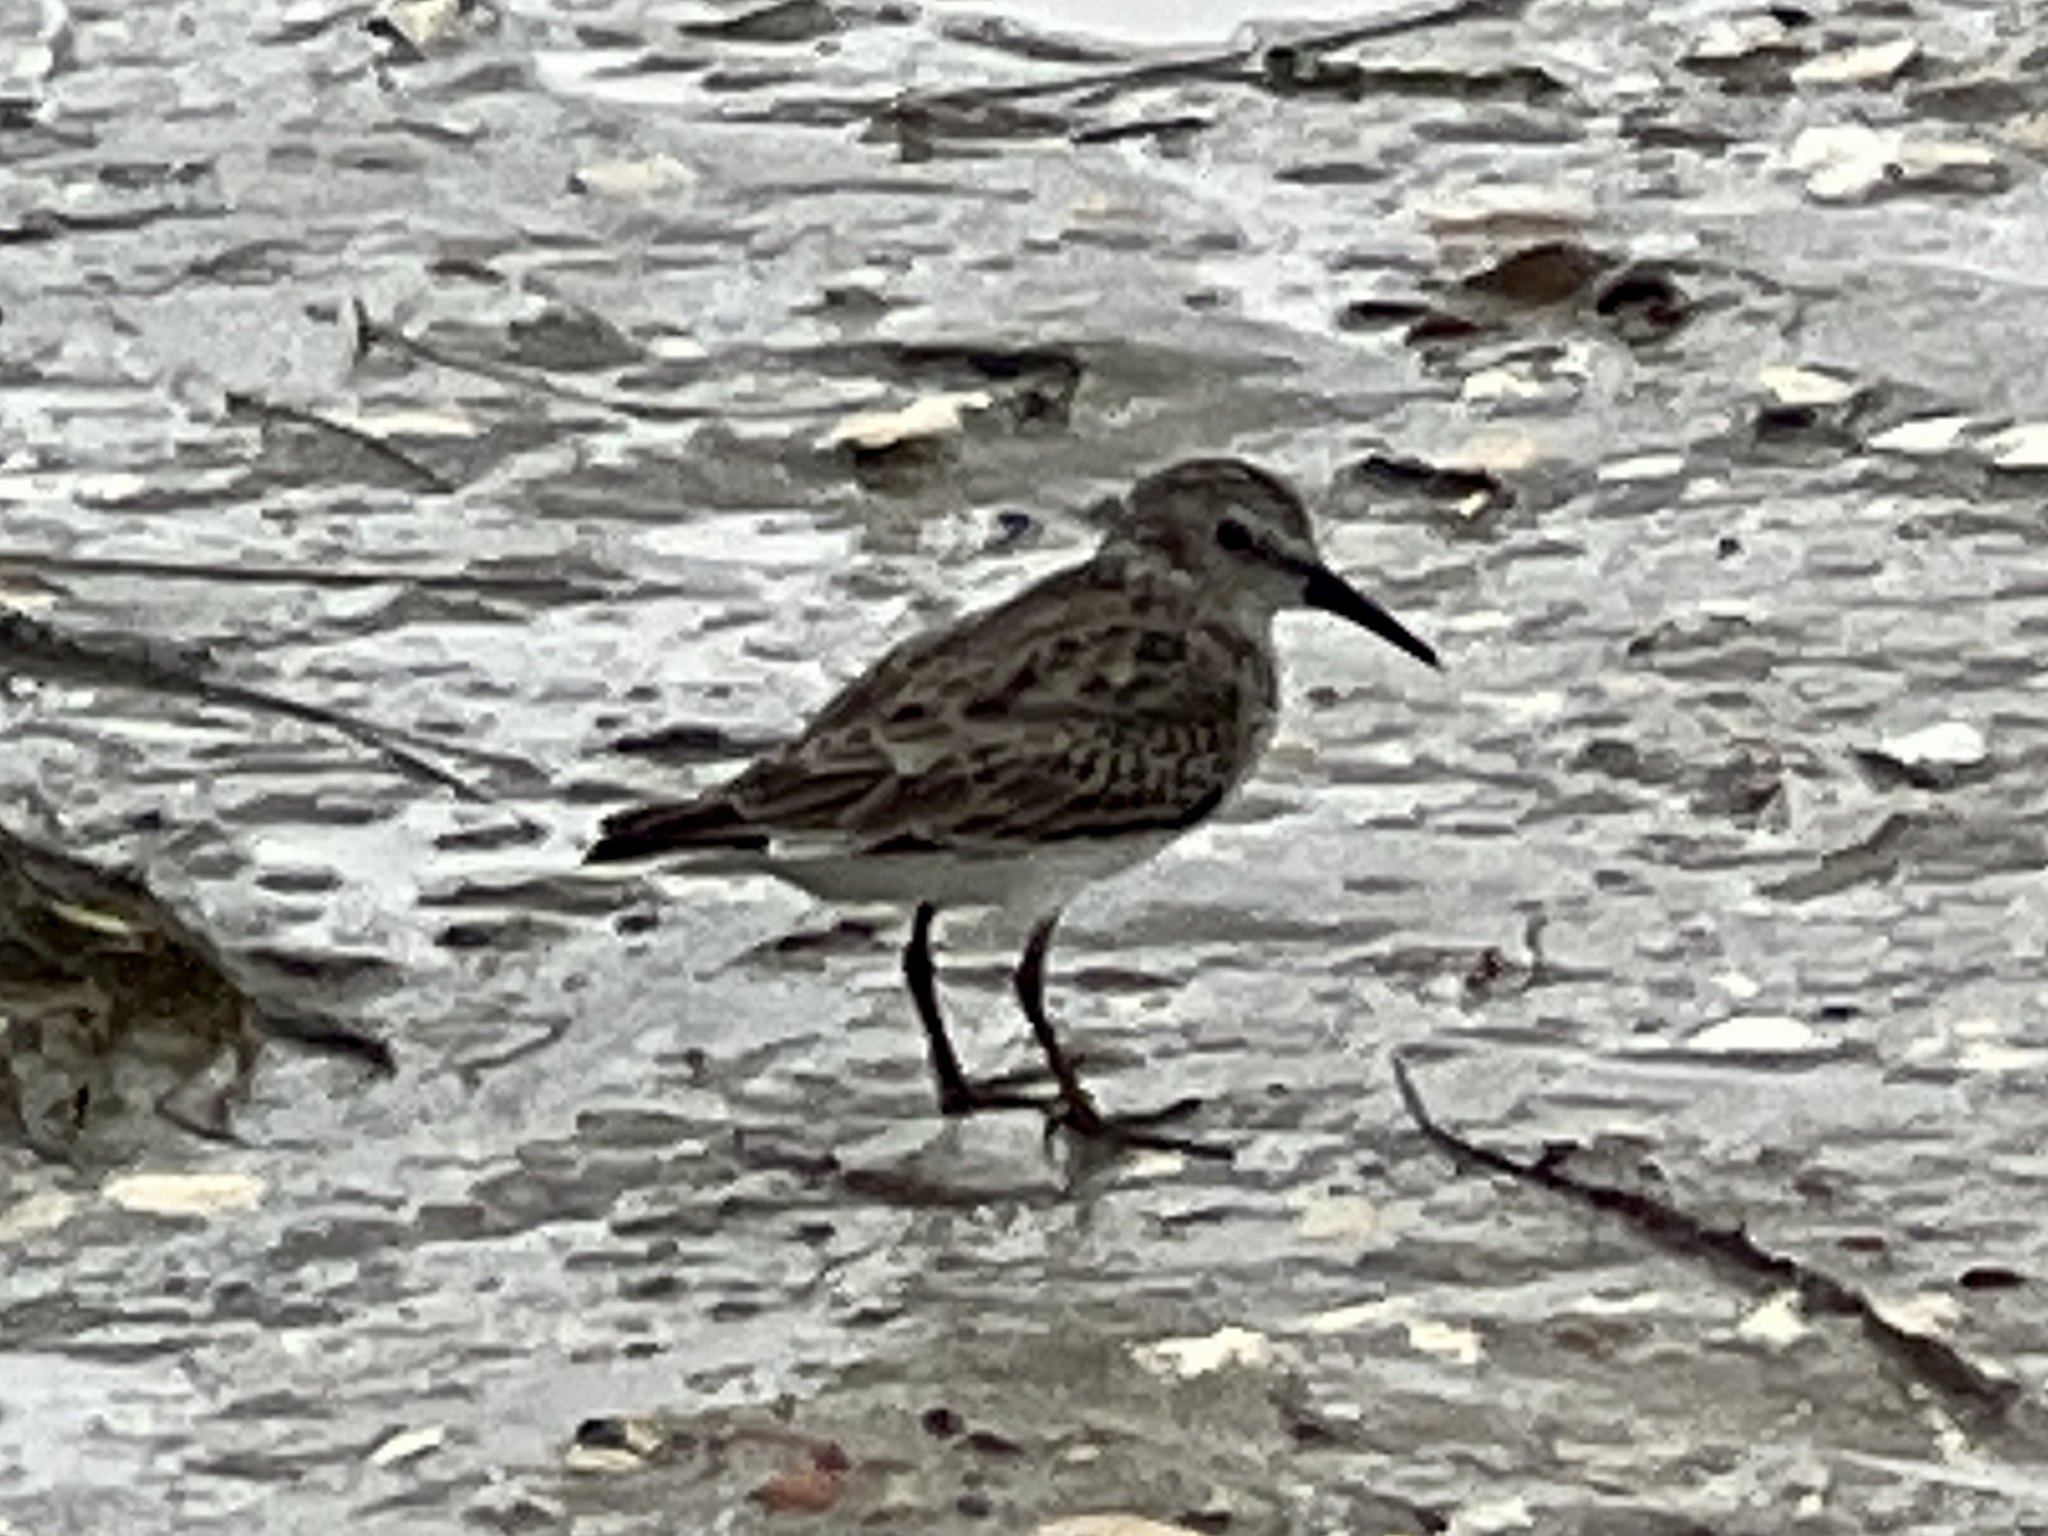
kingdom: Animalia
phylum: Chordata
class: Aves
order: Charadriiformes
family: Scolopacidae
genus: Calidris
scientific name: Calidris minutilla
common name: Least sandpiper
